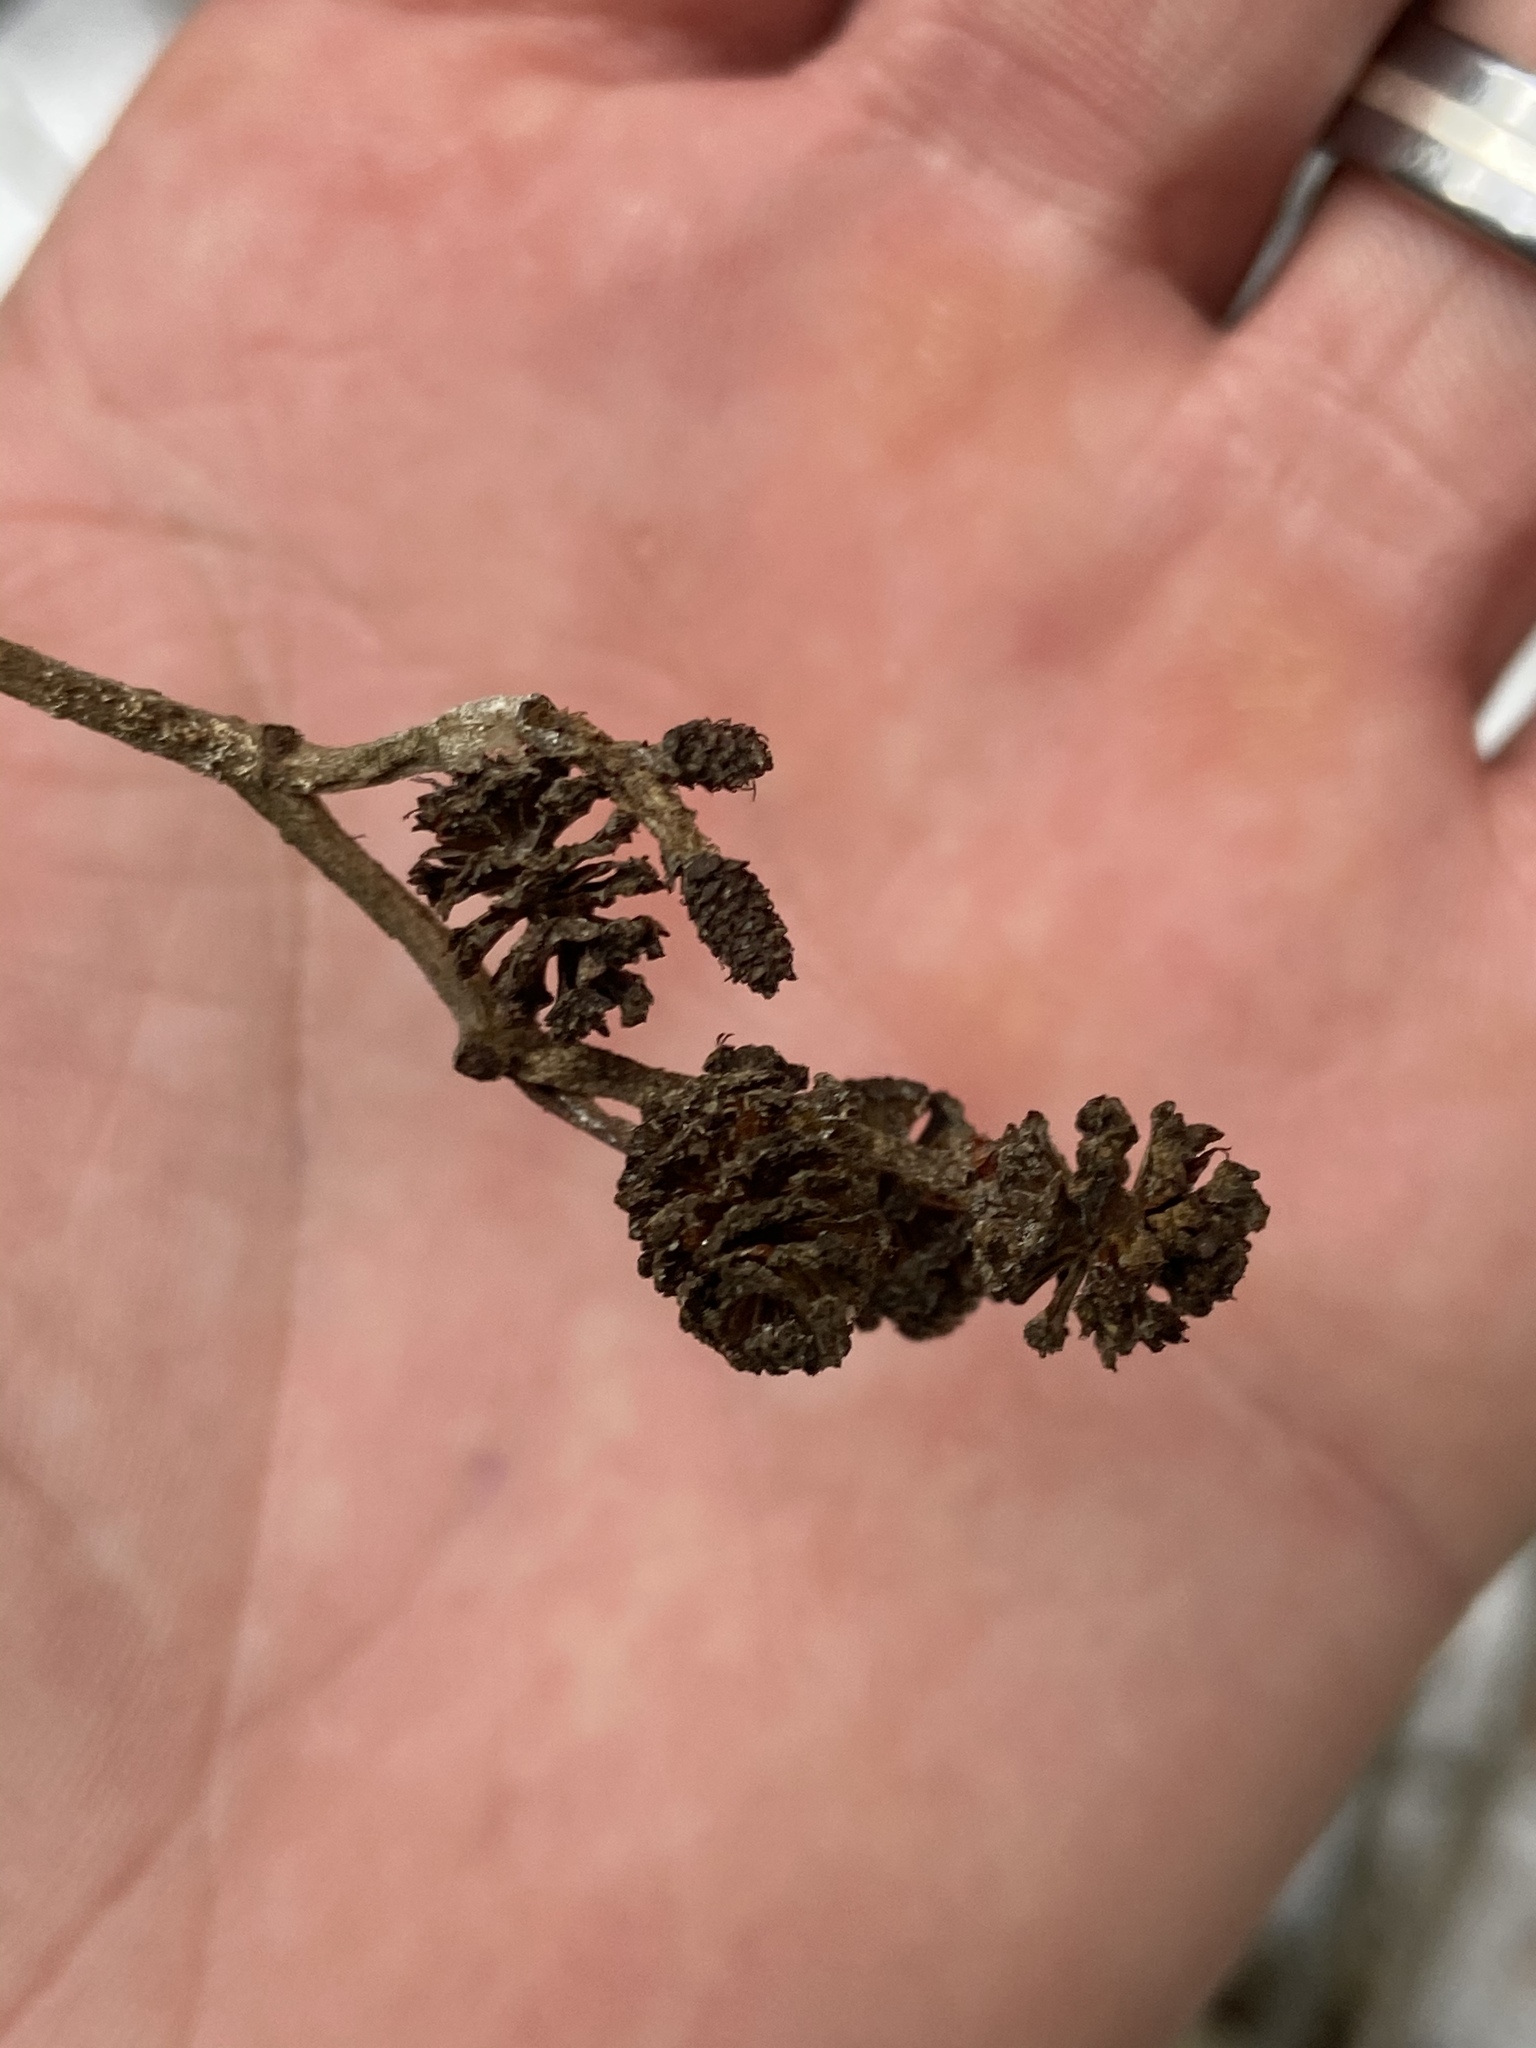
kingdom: Plantae
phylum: Tracheophyta
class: Magnoliopsida
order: Fagales
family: Betulaceae
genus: Alnus
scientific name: Alnus incana
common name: Grey alder
